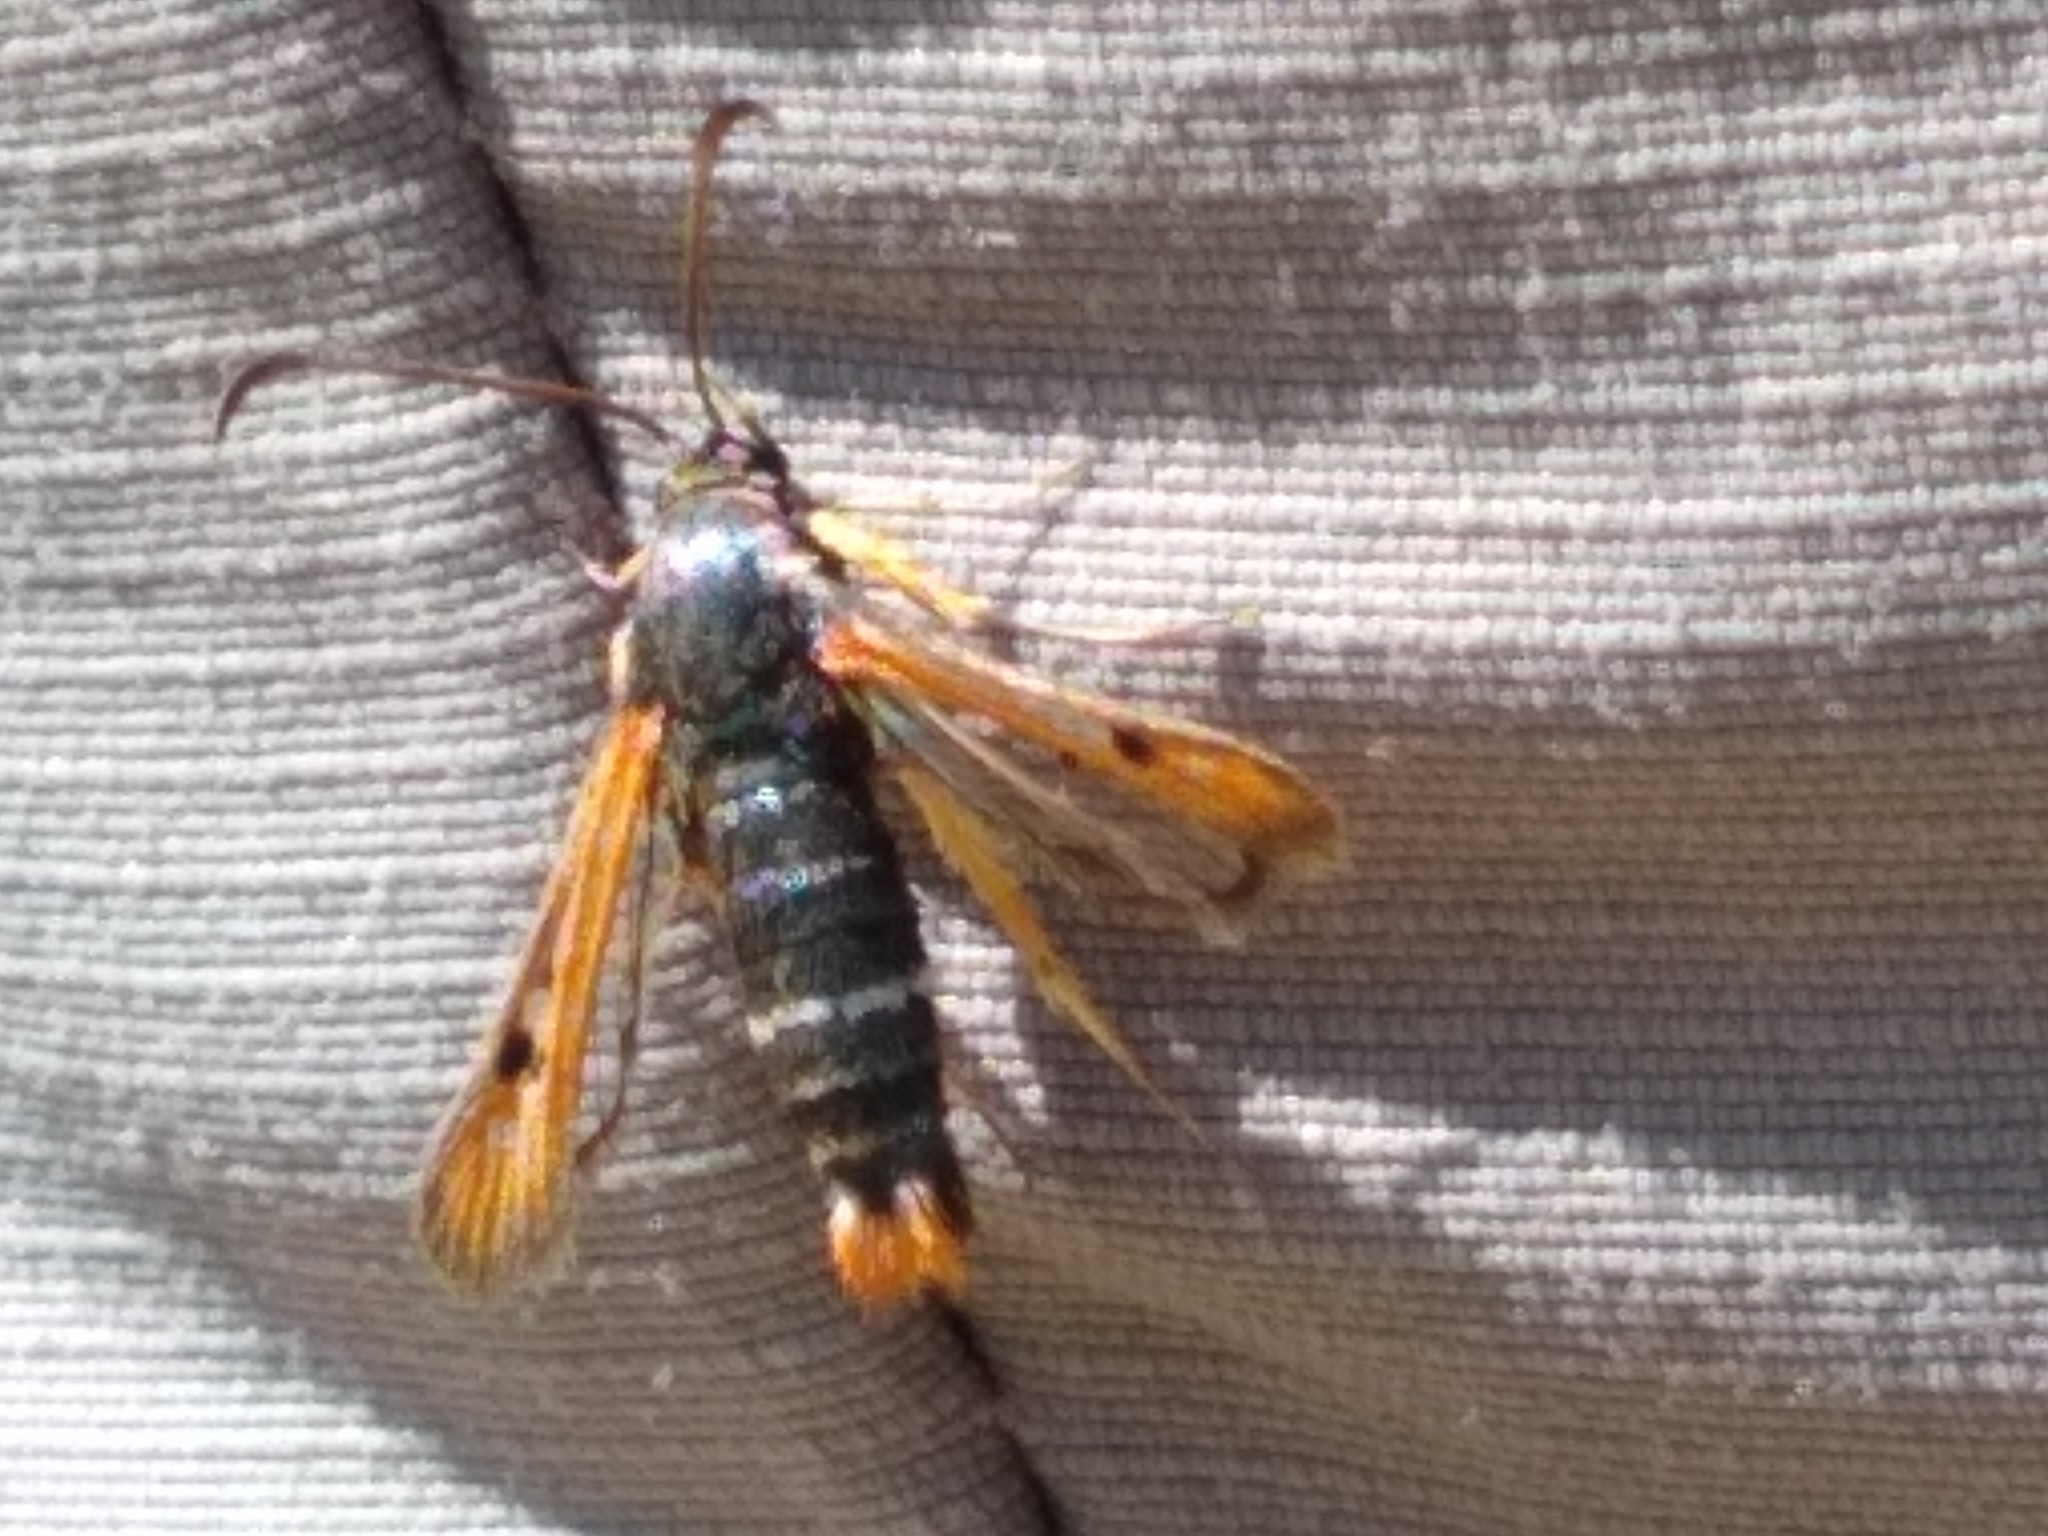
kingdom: Animalia
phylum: Arthropoda
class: Insecta
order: Lepidoptera
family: Sesiidae
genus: Pyropteron
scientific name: Pyropteron chrysidiforme
